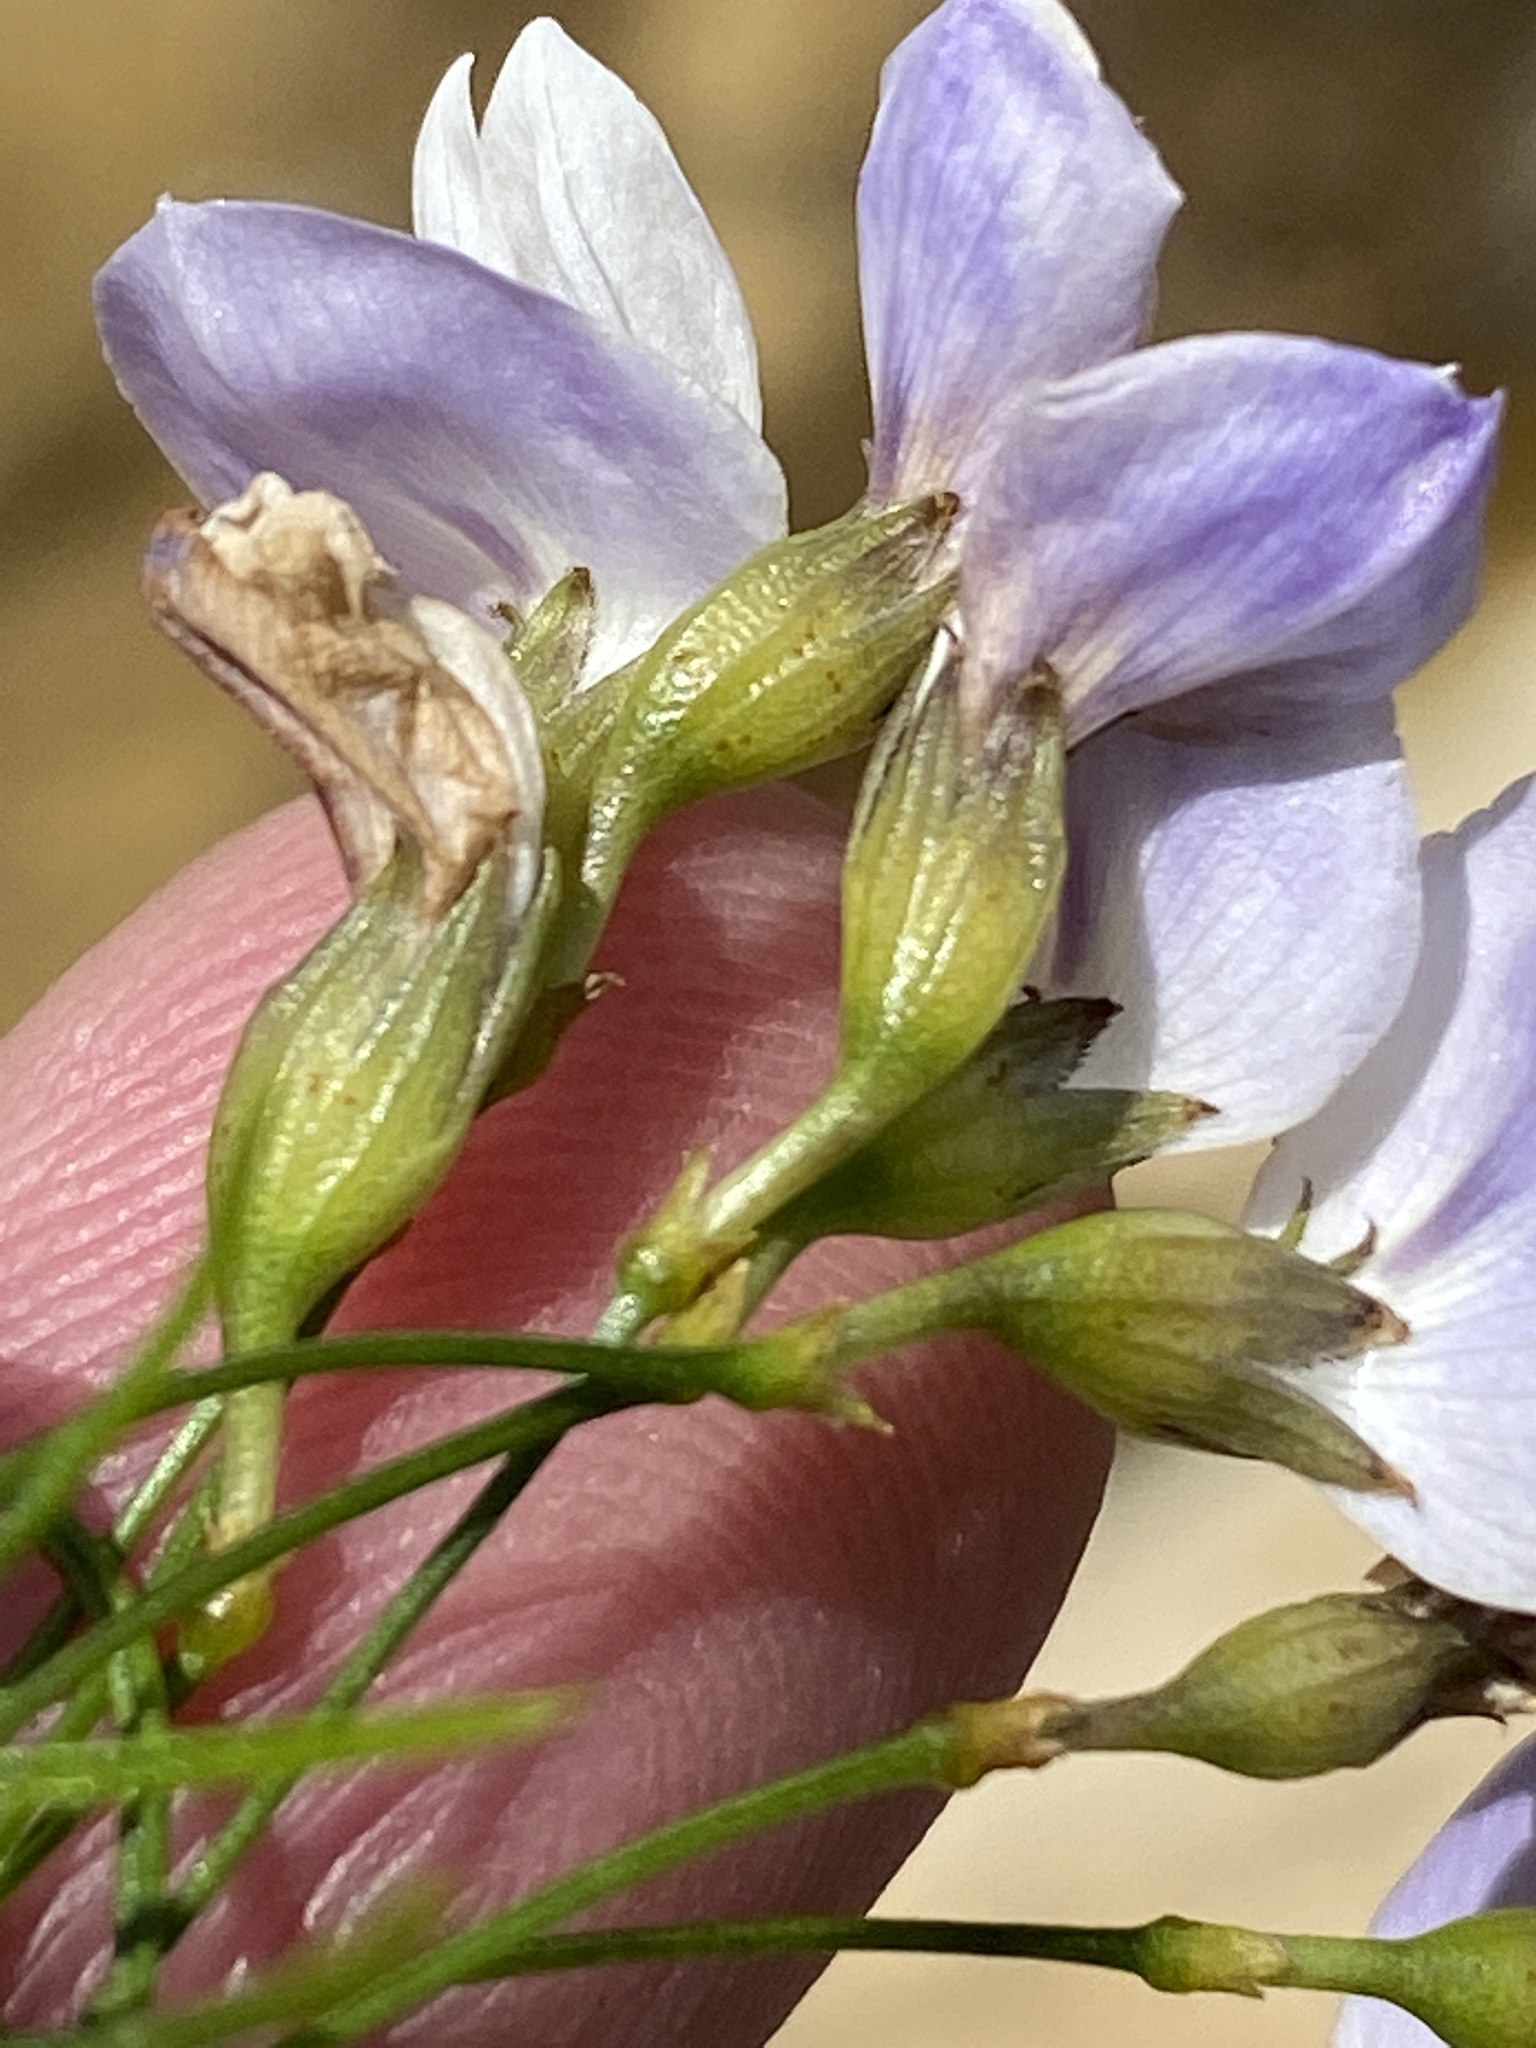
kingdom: Plantae
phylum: Tracheophyta
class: Magnoliopsida
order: Fabales
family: Fabaceae
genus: Psoralea
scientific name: Psoralea imminens
